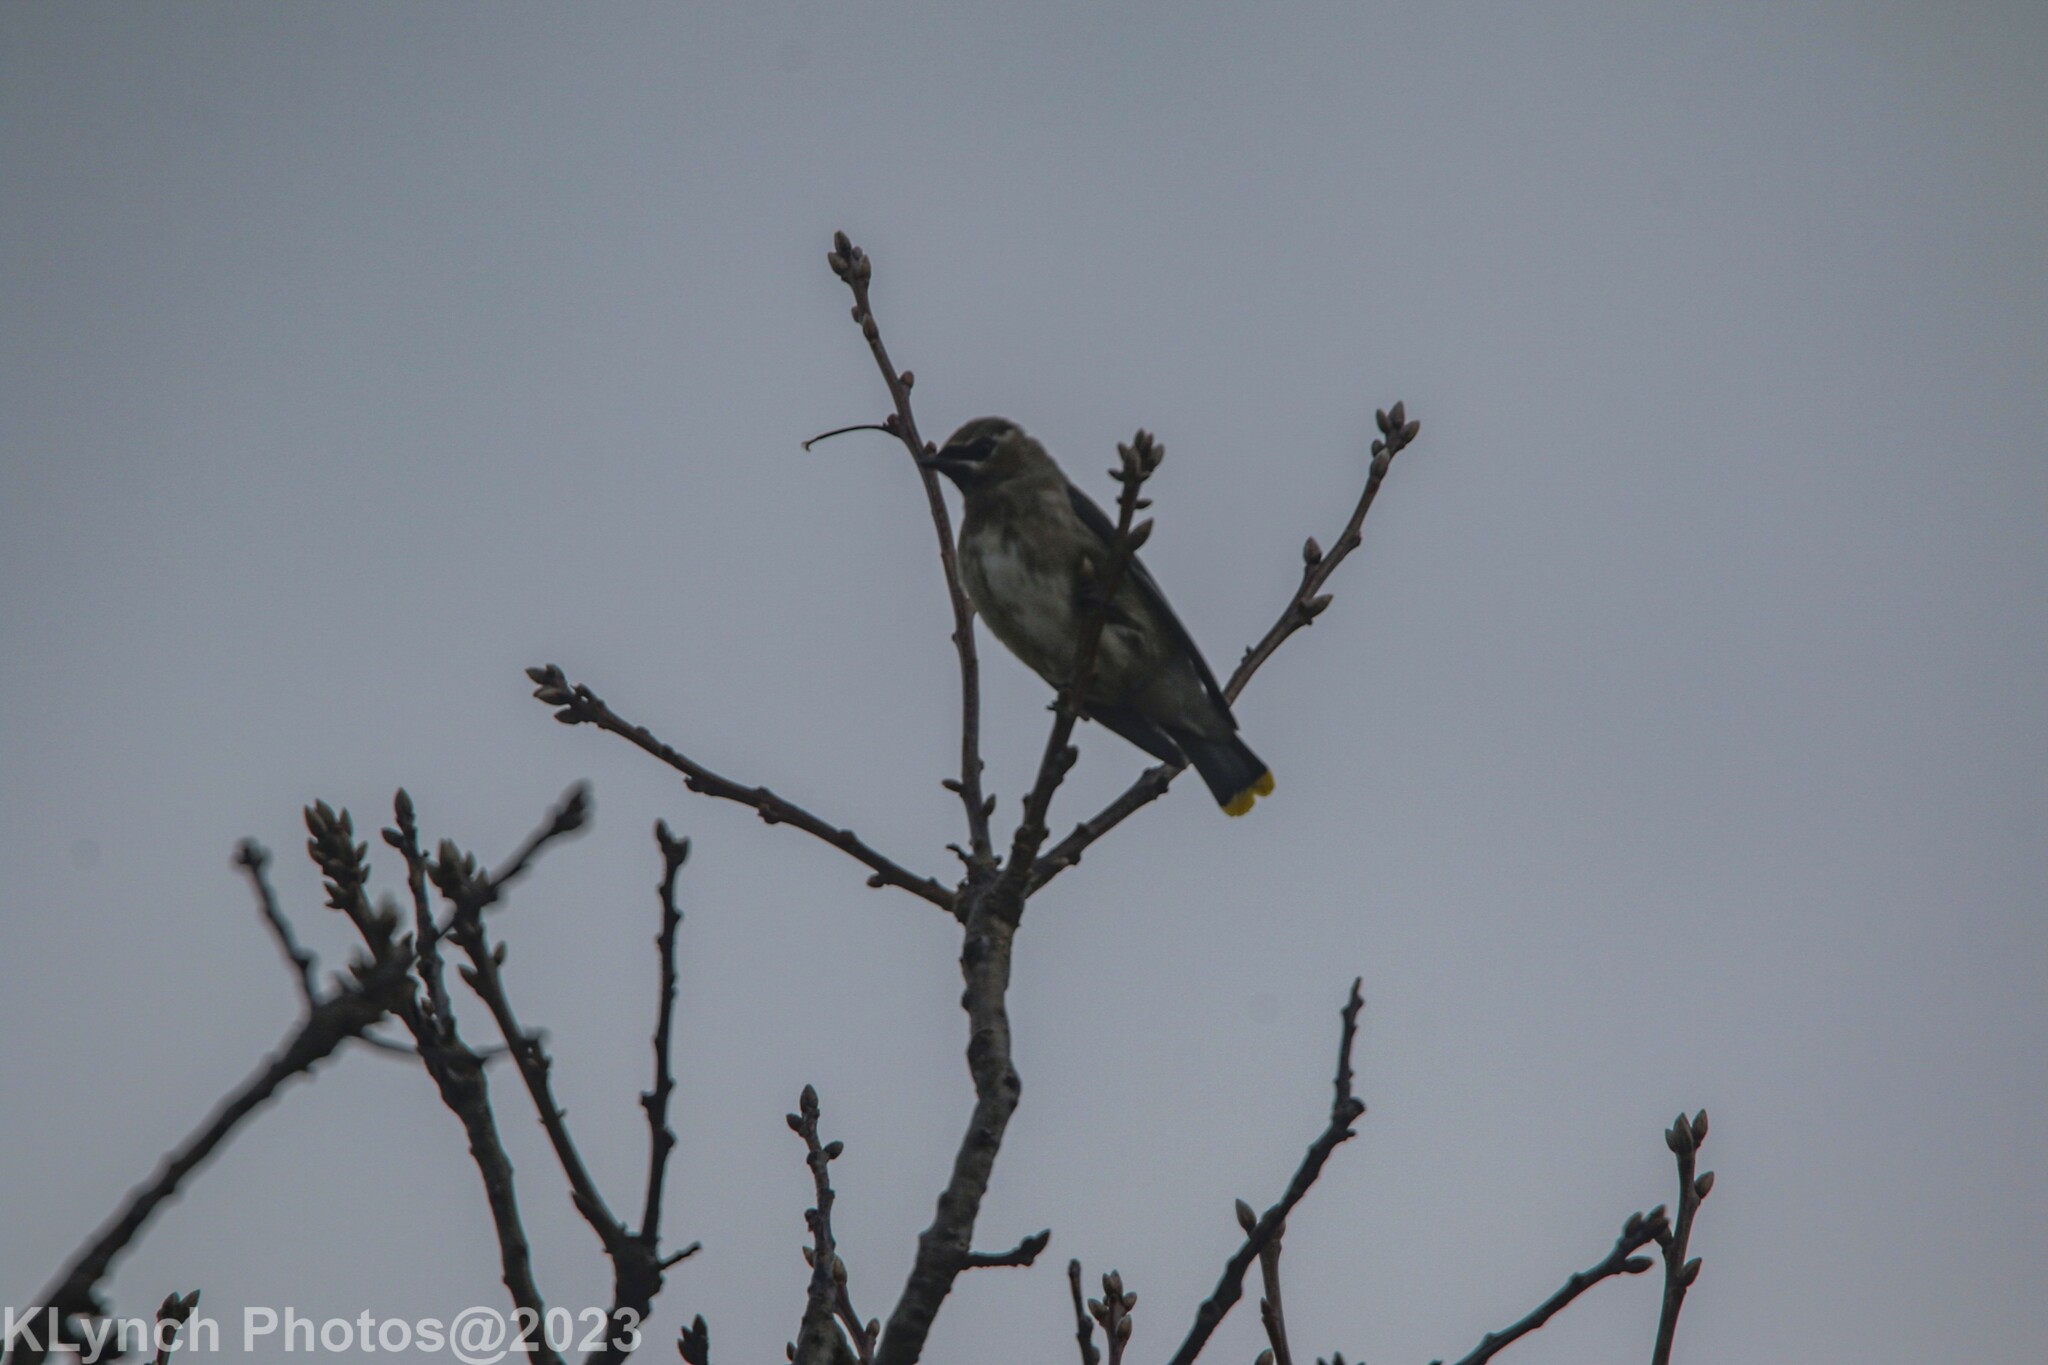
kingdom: Animalia
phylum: Chordata
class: Aves
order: Passeriformes
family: Bombycillidae
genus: Bombycilla
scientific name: Bombycilla cedrorum
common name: Cedar waxwing
